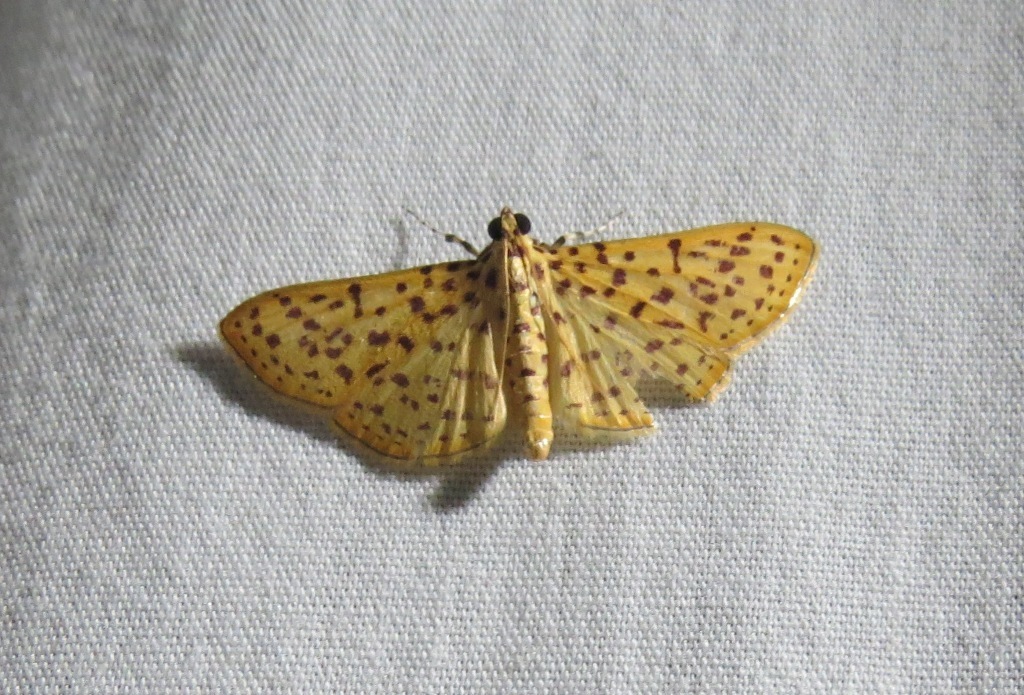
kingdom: Animalia
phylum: Arthropoda
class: Insecta
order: Lepidoptera
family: Crambidae
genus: Polygrammodes
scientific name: Polygrammodes elevata
